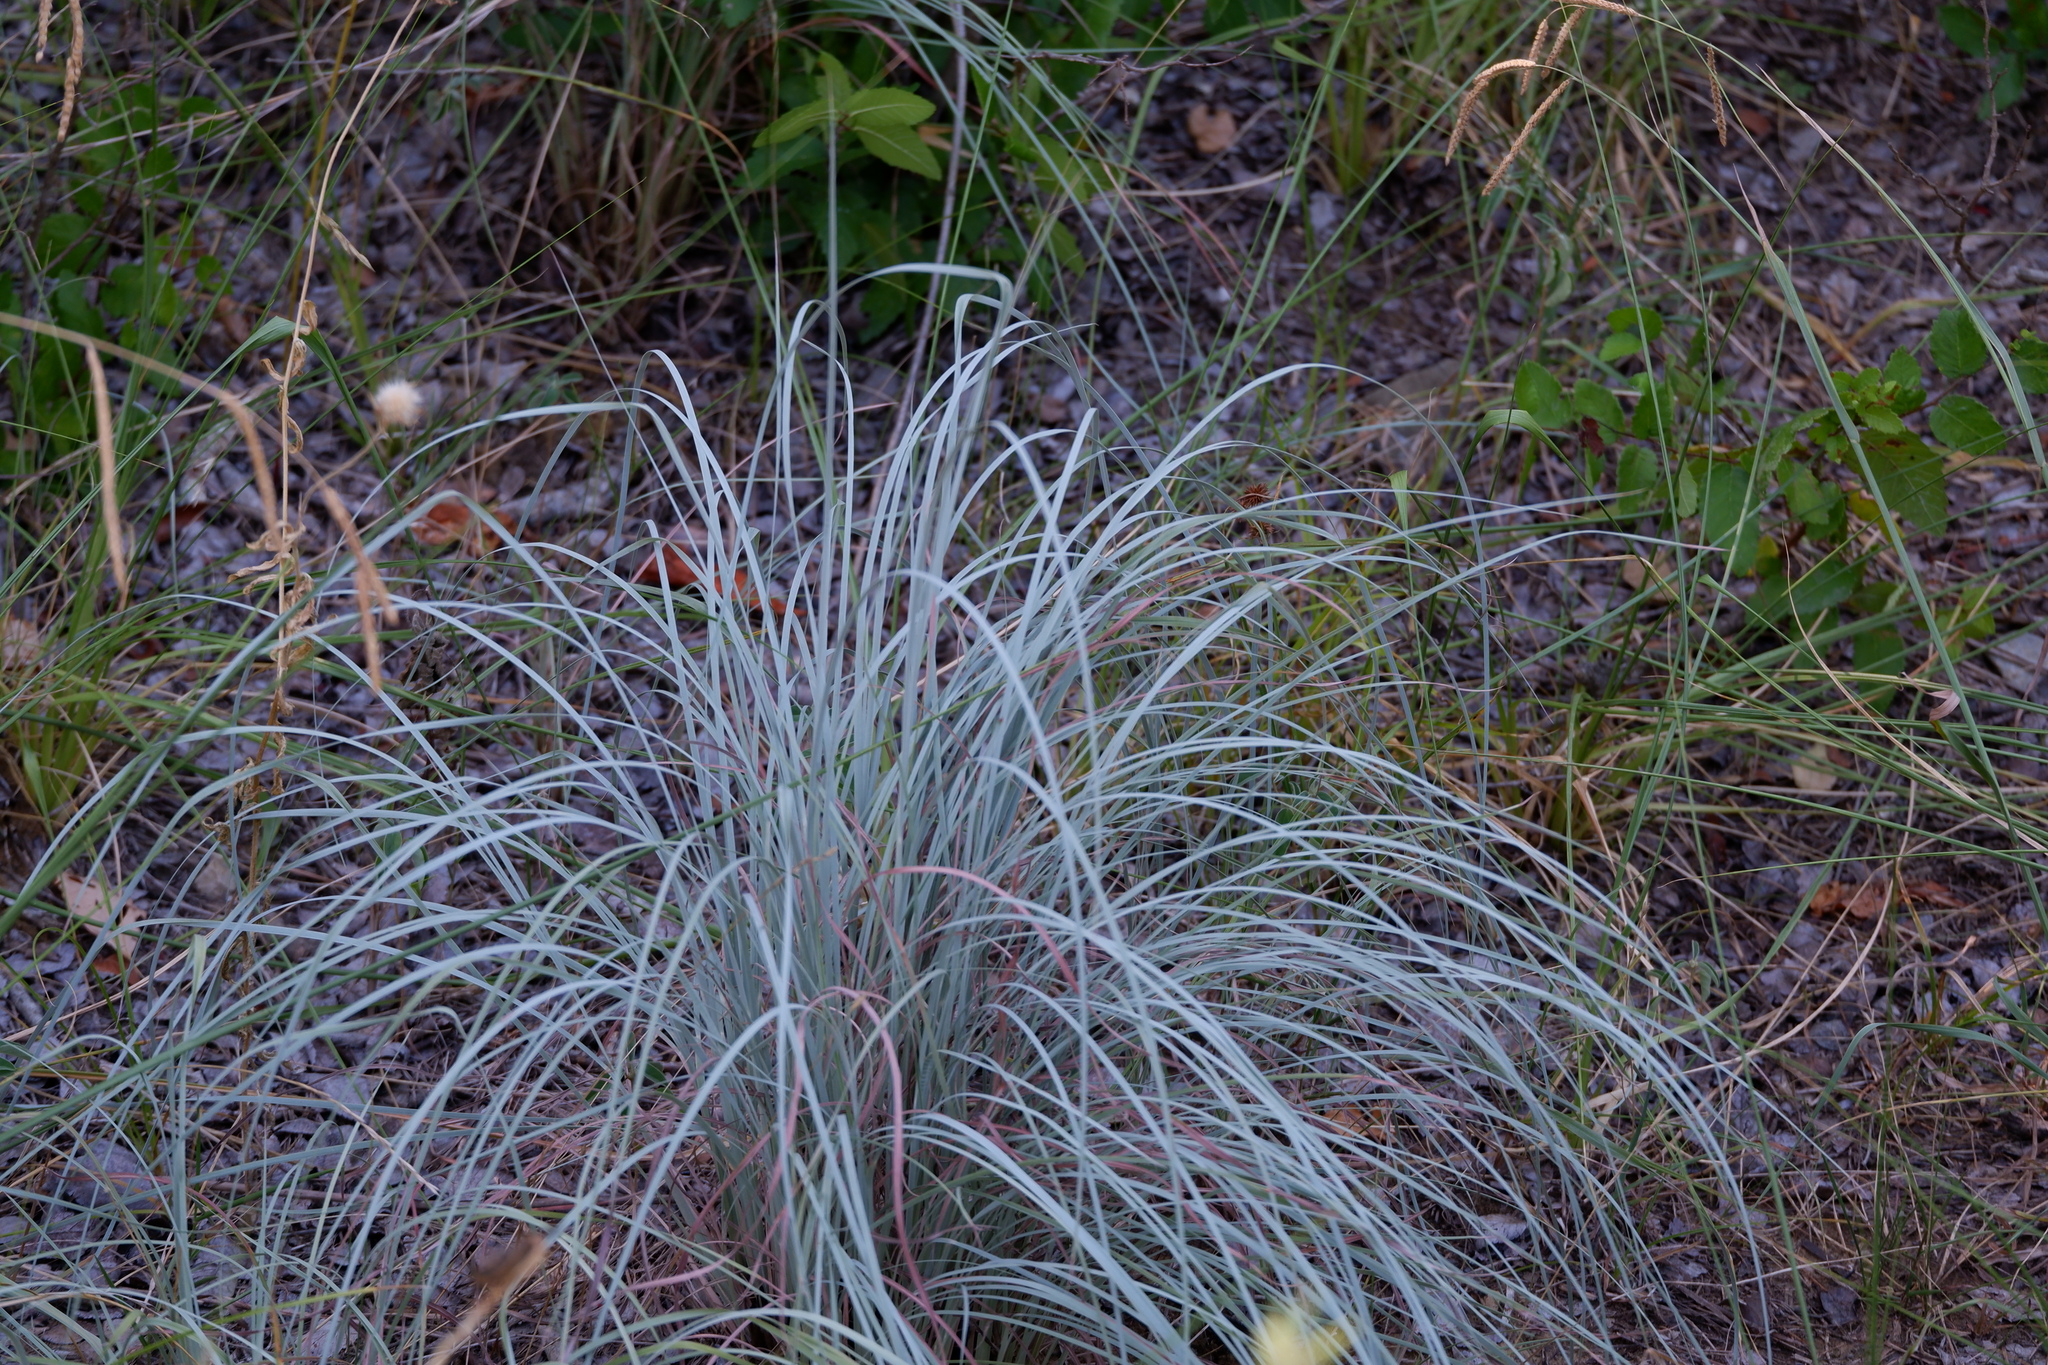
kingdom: Plantae
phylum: Tracheophyta
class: Liliopsida
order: Poales
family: Poaceae
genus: Schizachyrium
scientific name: Schizachyrium scoparium
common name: Little bluestem
